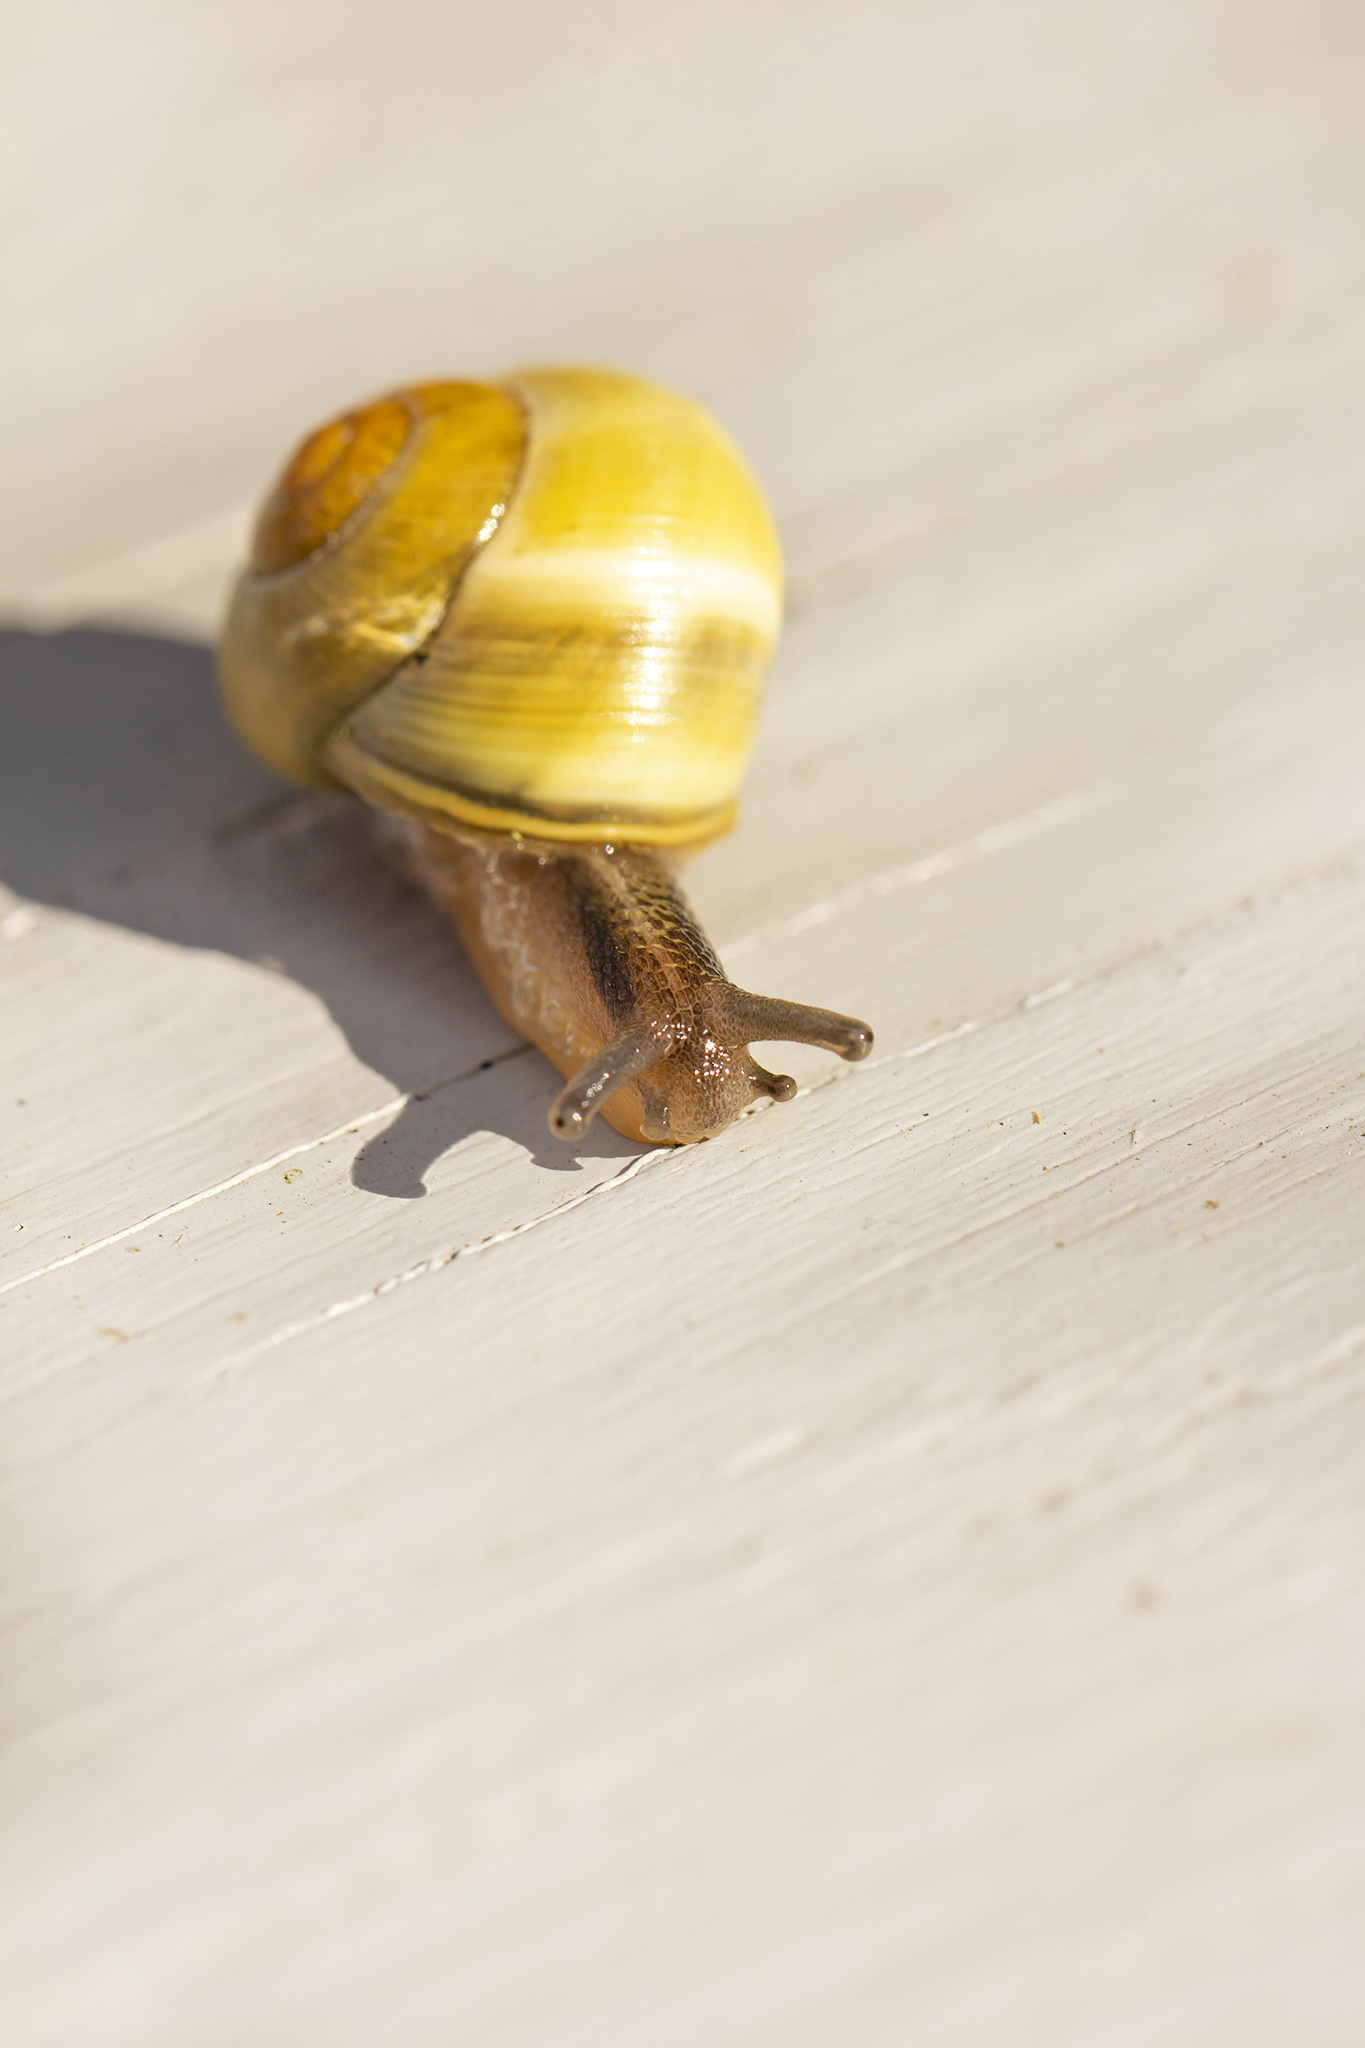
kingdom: Animalia
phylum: Mollusca
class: Gastropoda
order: Stylommatophora
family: Helicidae
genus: Cepaea
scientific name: Cepaea nemoralis
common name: Grovesnail
